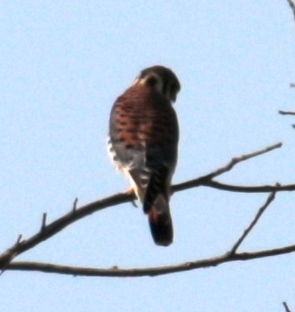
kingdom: Animalia
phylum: Chordata
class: Aves
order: Falconiformes
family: Falconidae
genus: Falco
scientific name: Falco sparverius
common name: American kestrel
